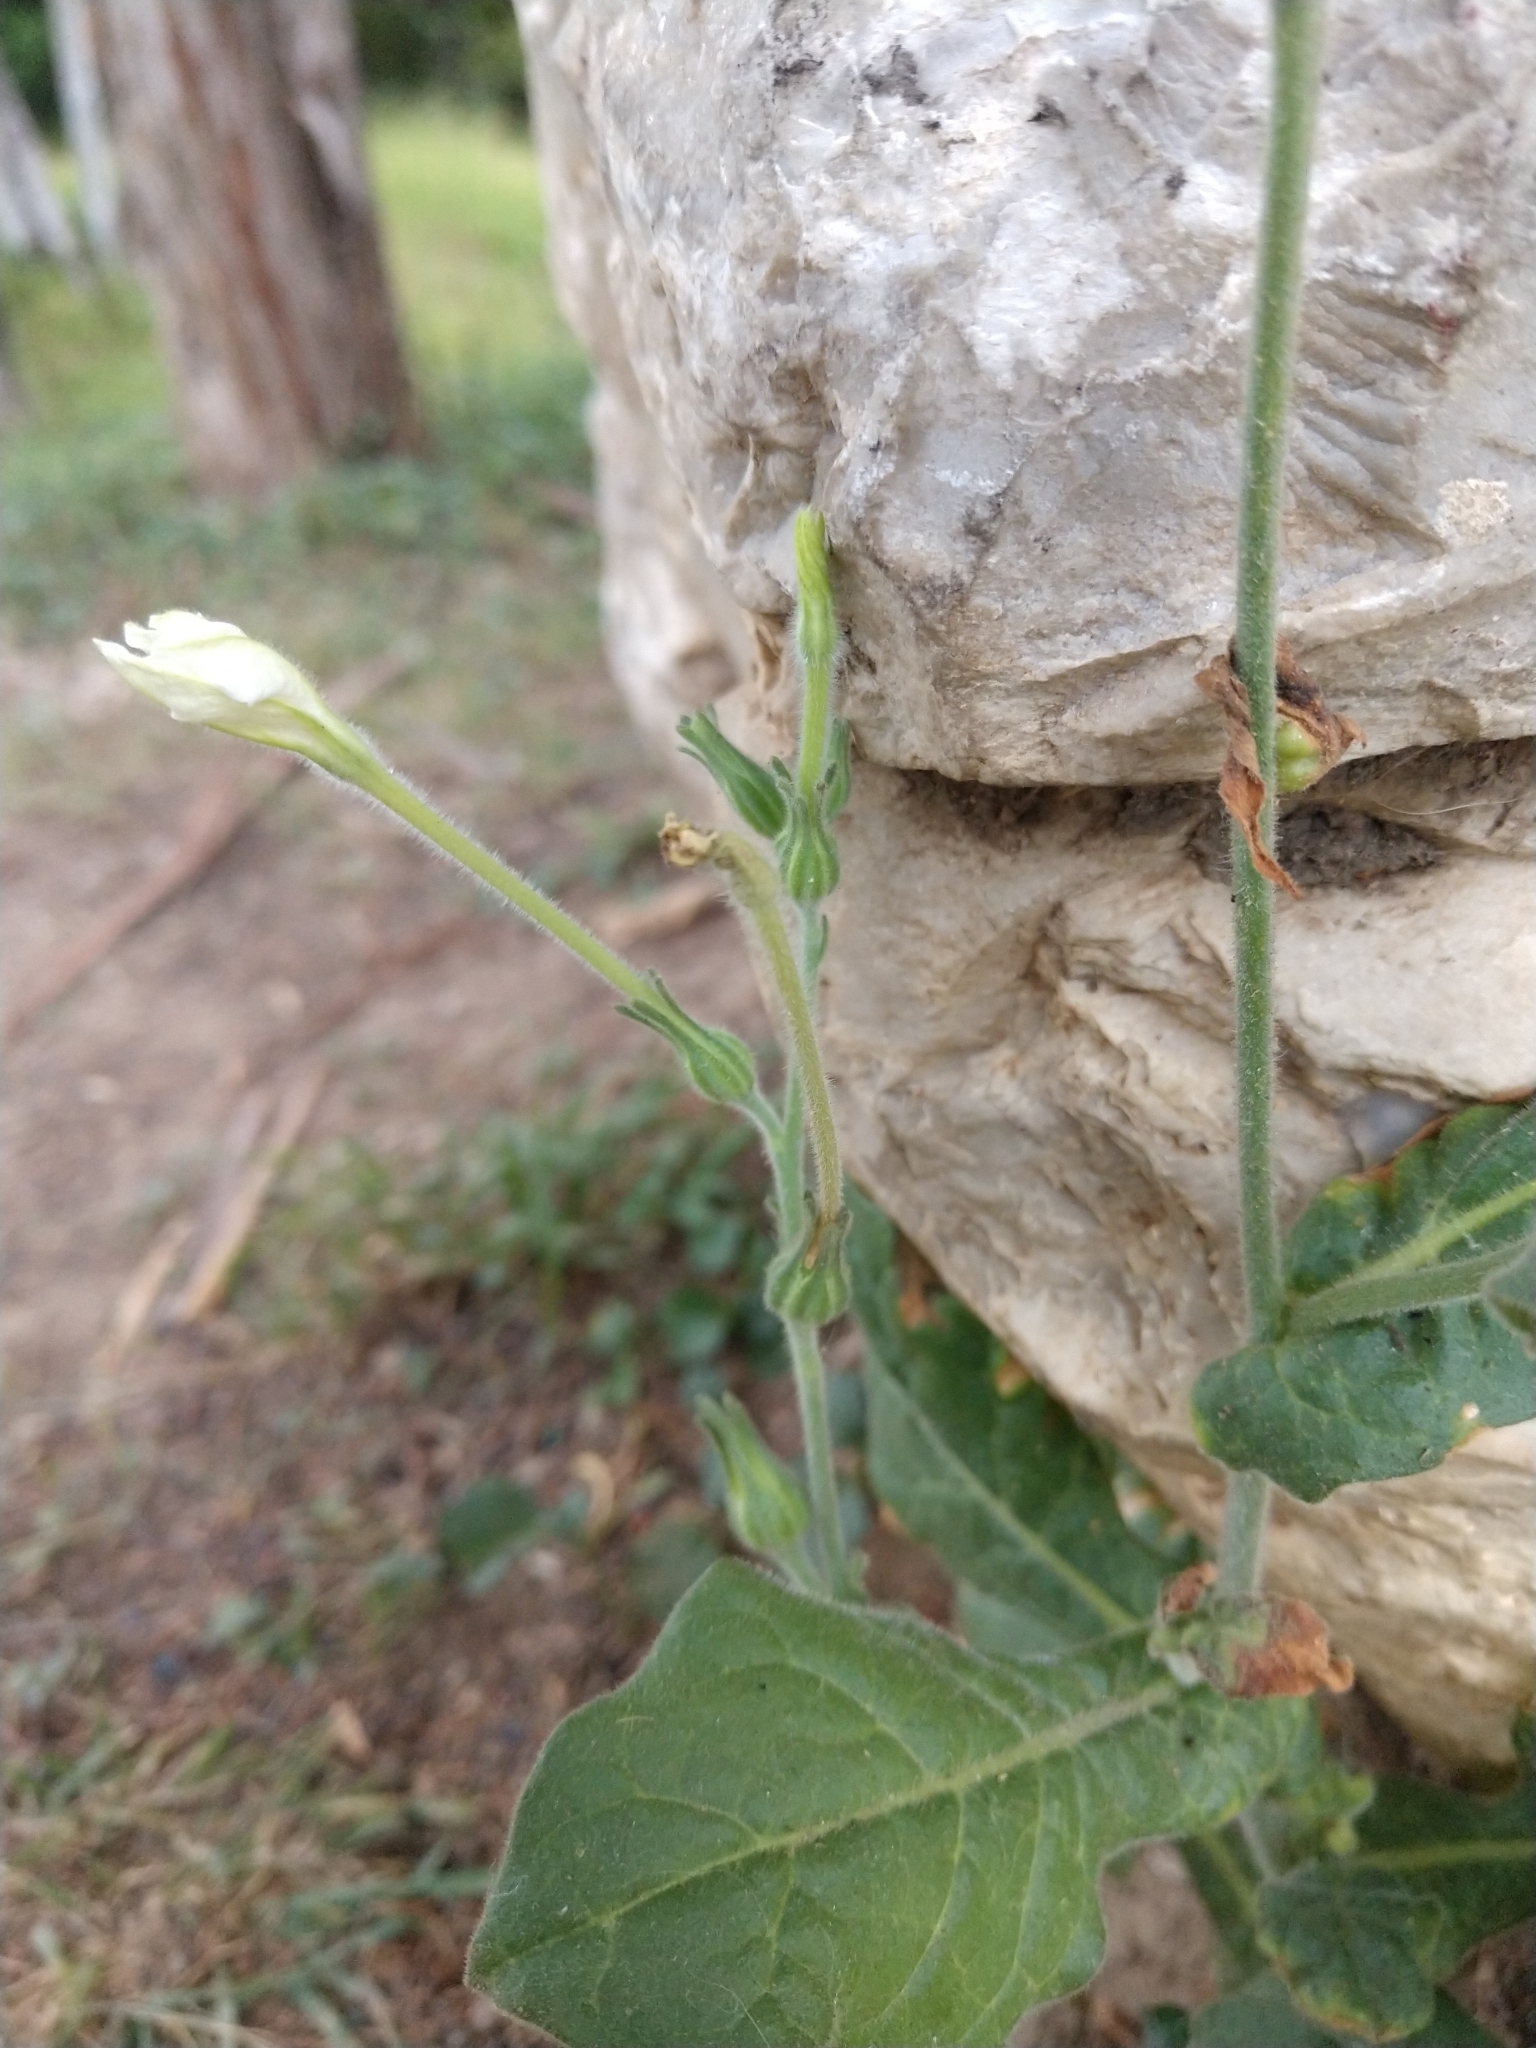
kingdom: Plantae
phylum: Tracheophyta
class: Magnoliopsida
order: Solanales
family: Solanaceae
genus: Nicotiana
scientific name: Nicotiana repanda
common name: Fiddle-leaf tobacco
